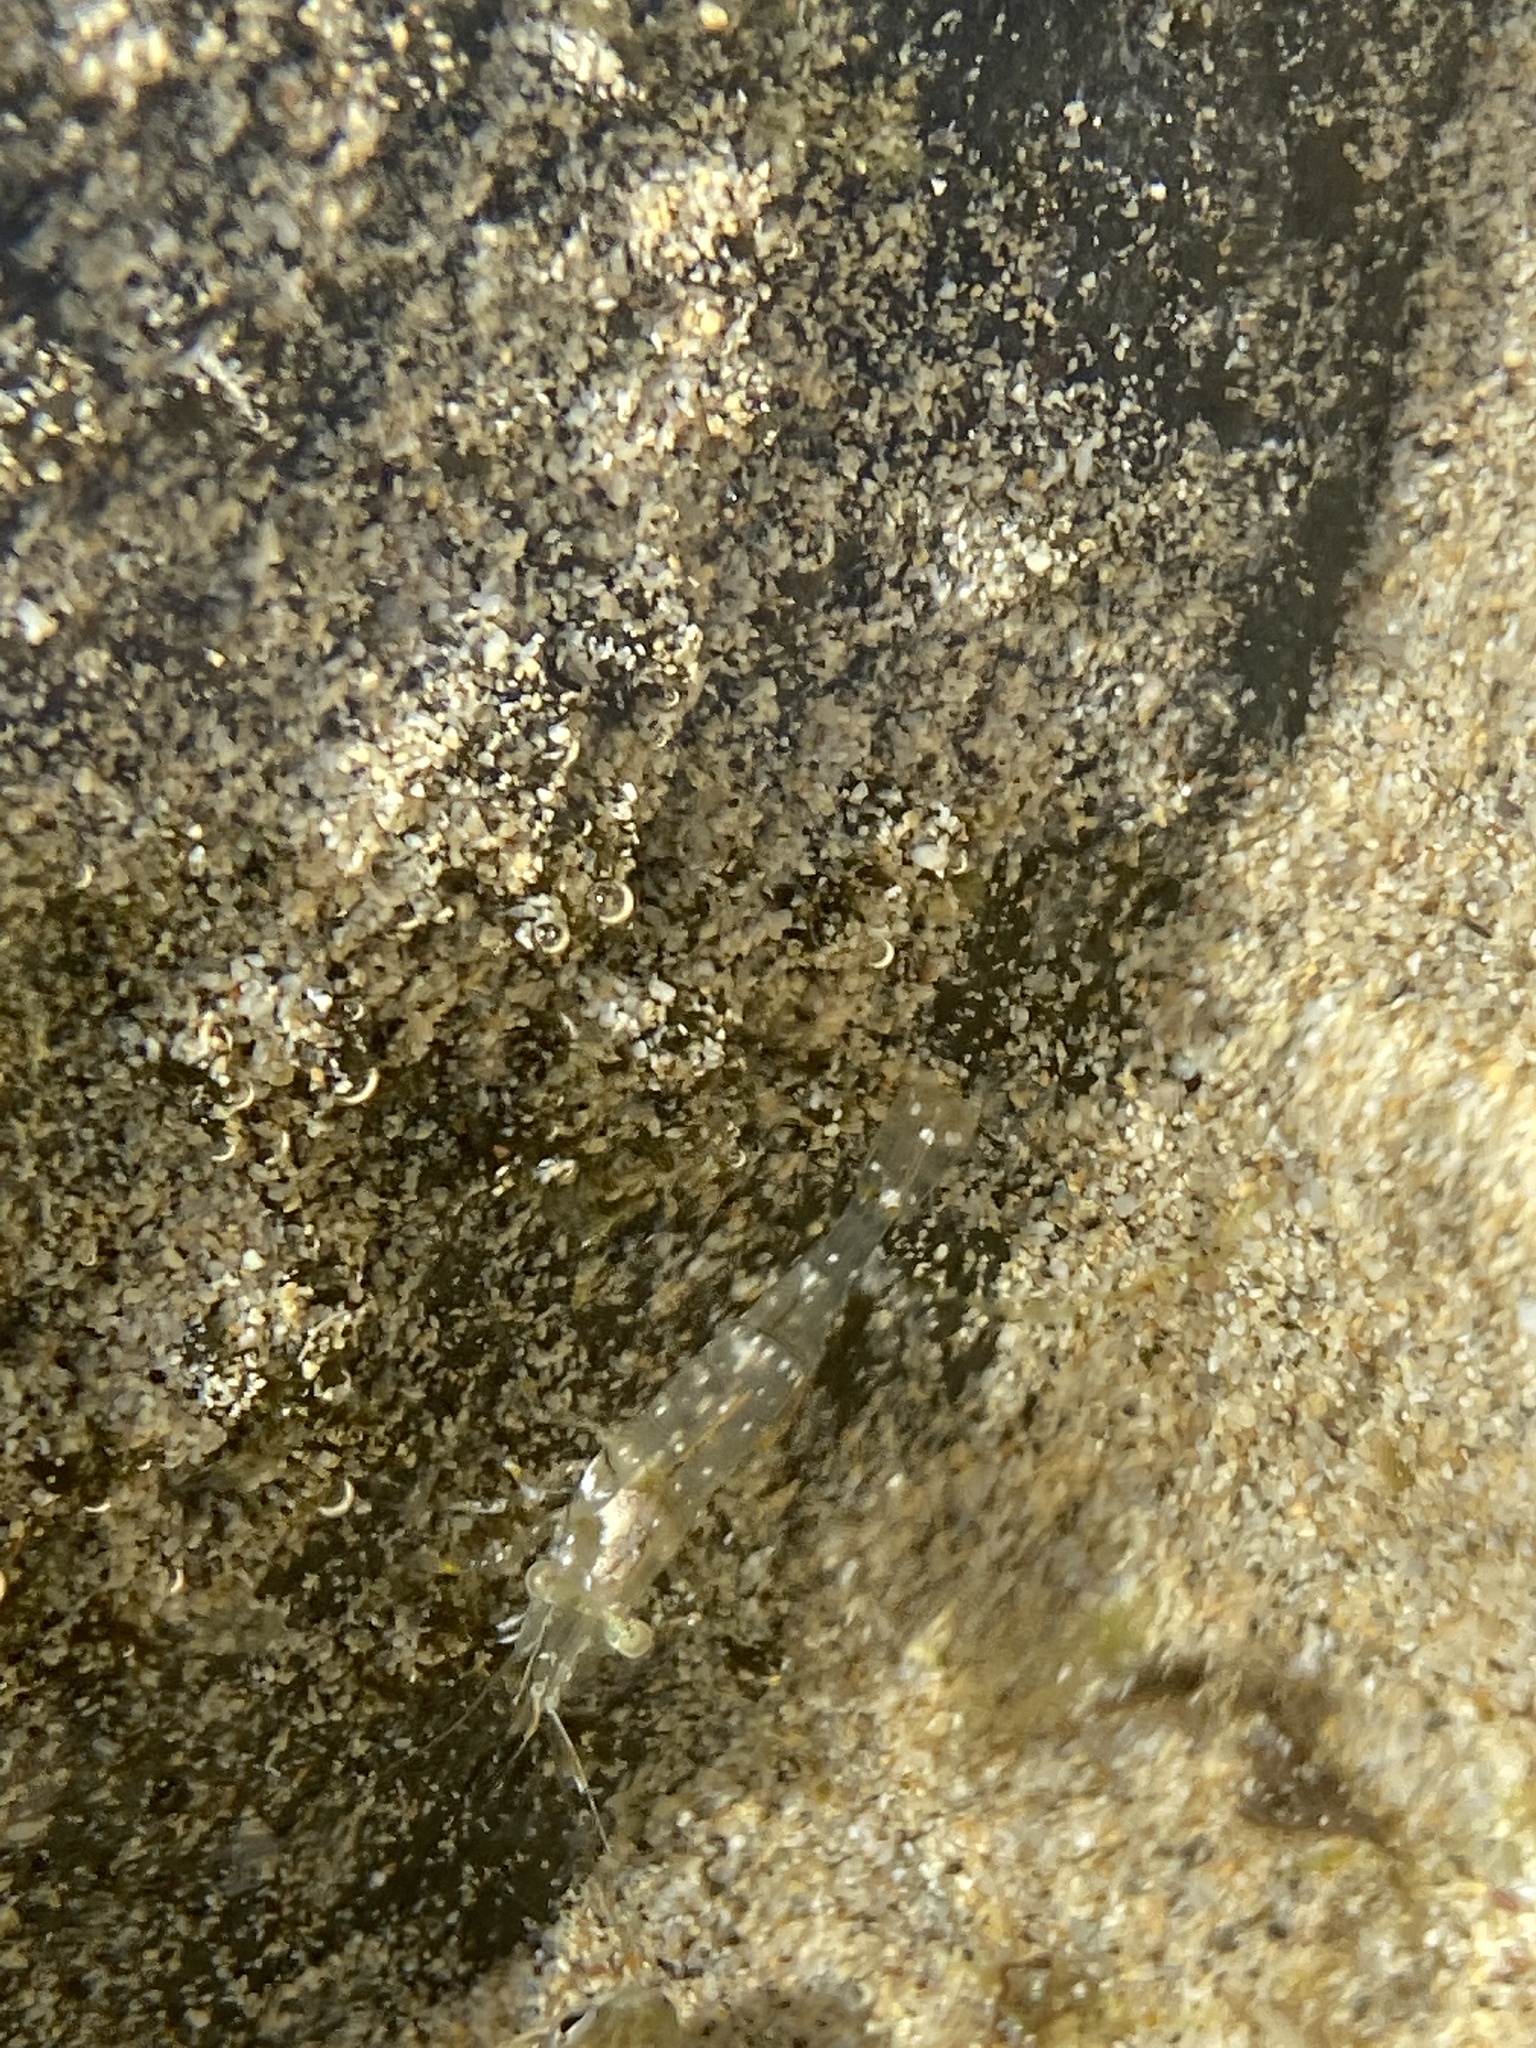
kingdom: Animalia
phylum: Arthropoda
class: Malacostraca
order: Decapoda
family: Palaemonidae
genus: Palaemon
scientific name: Palaemon elegans
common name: Grass prawm
